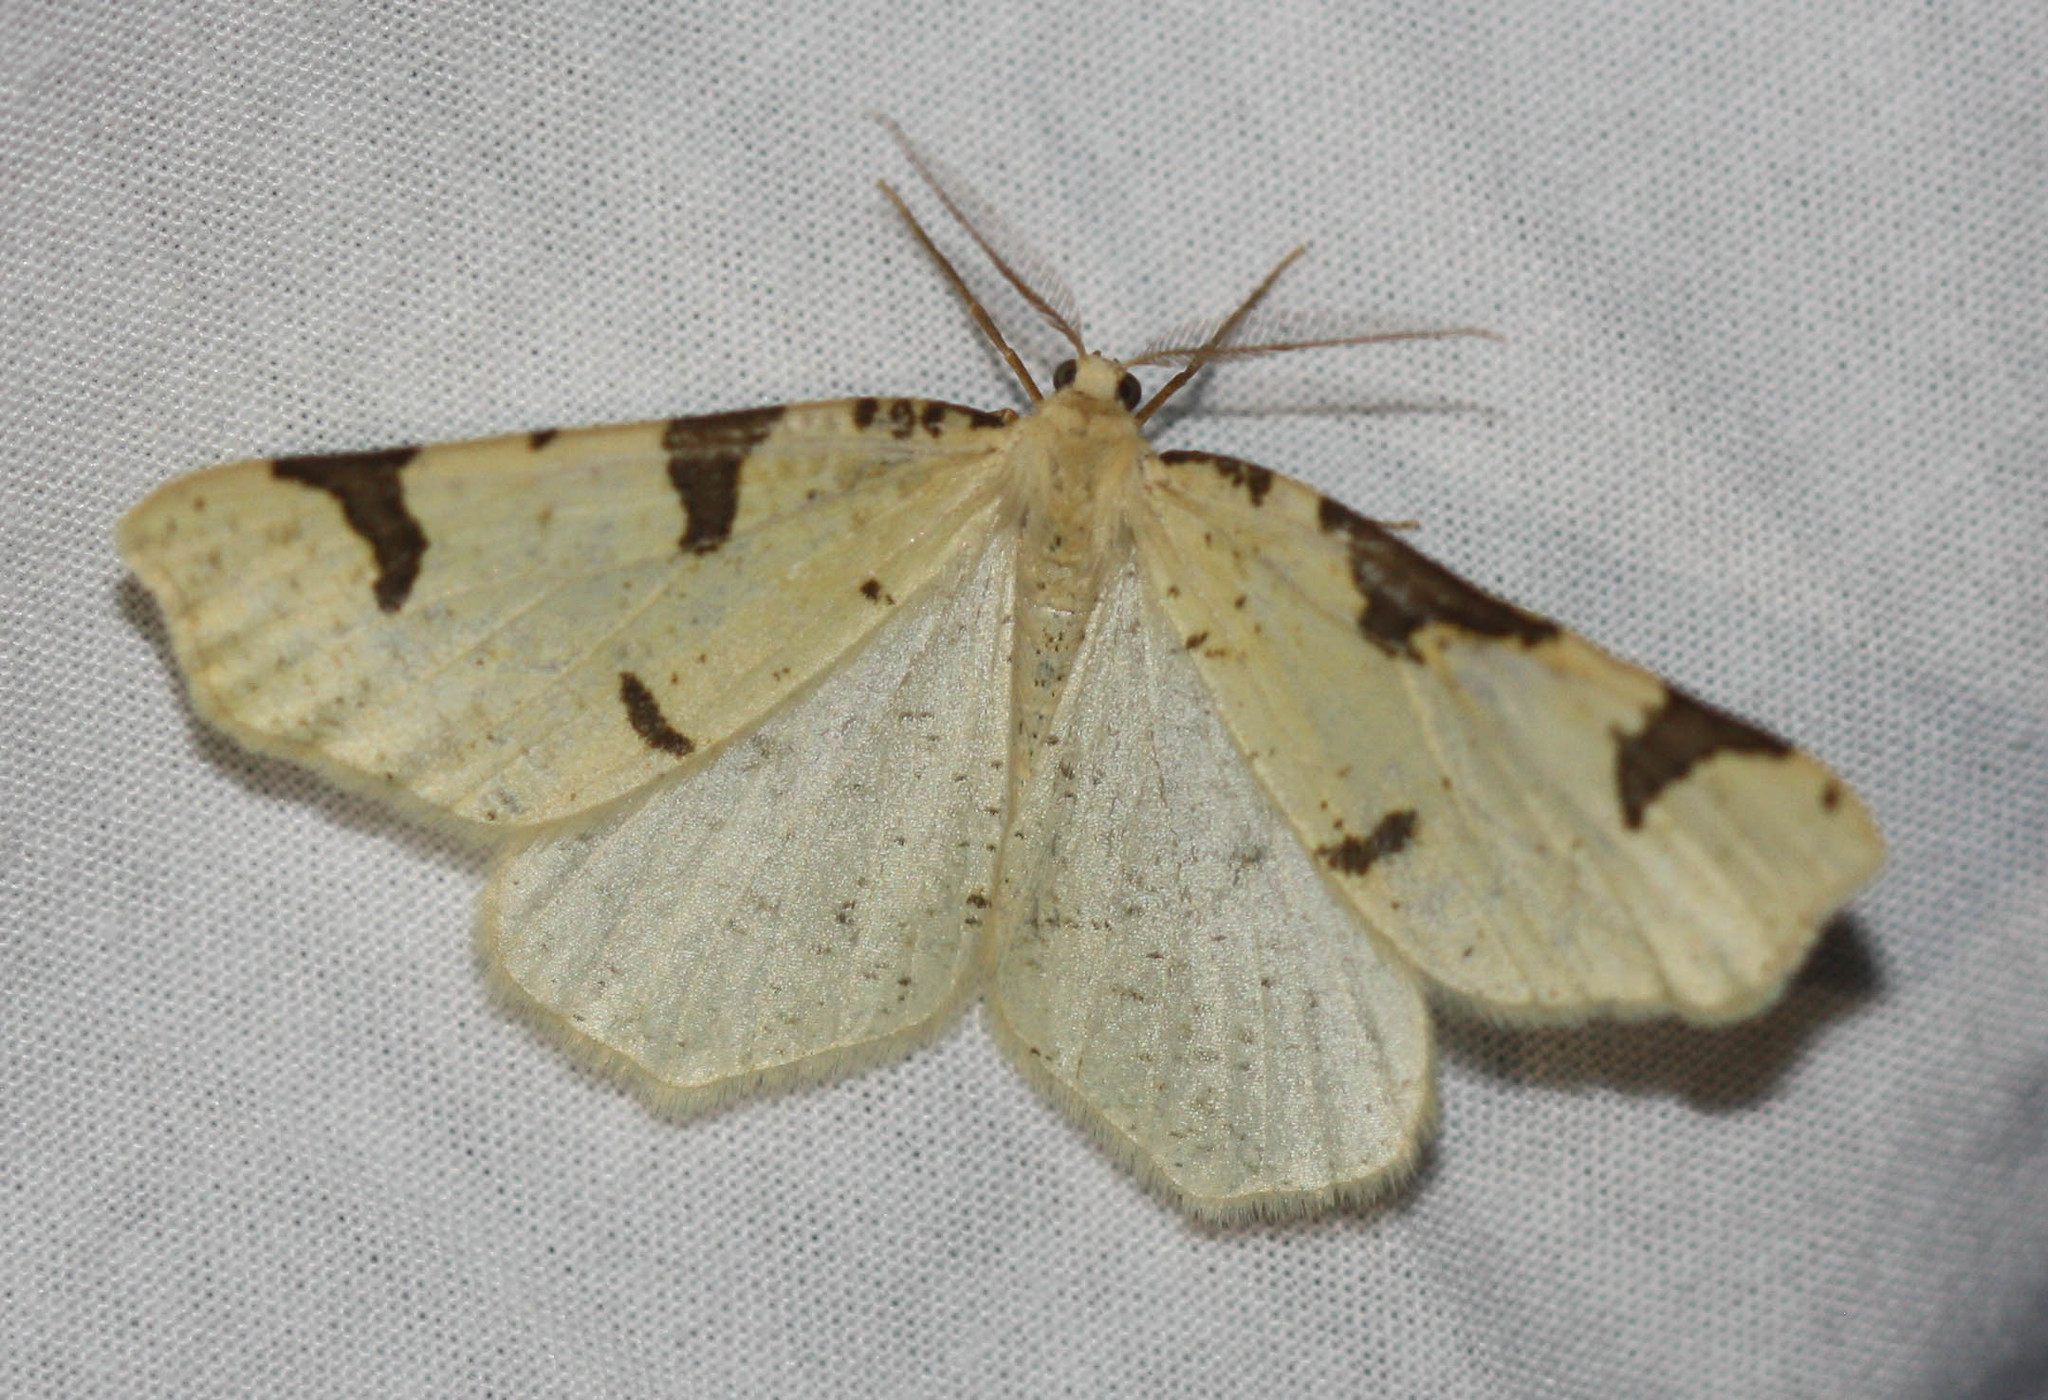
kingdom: Animalia
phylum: Arthropoda
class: Insecta
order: Lepidoptera
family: Geometridae
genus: Neoterpes
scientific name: Neoterpes trianguliferata
